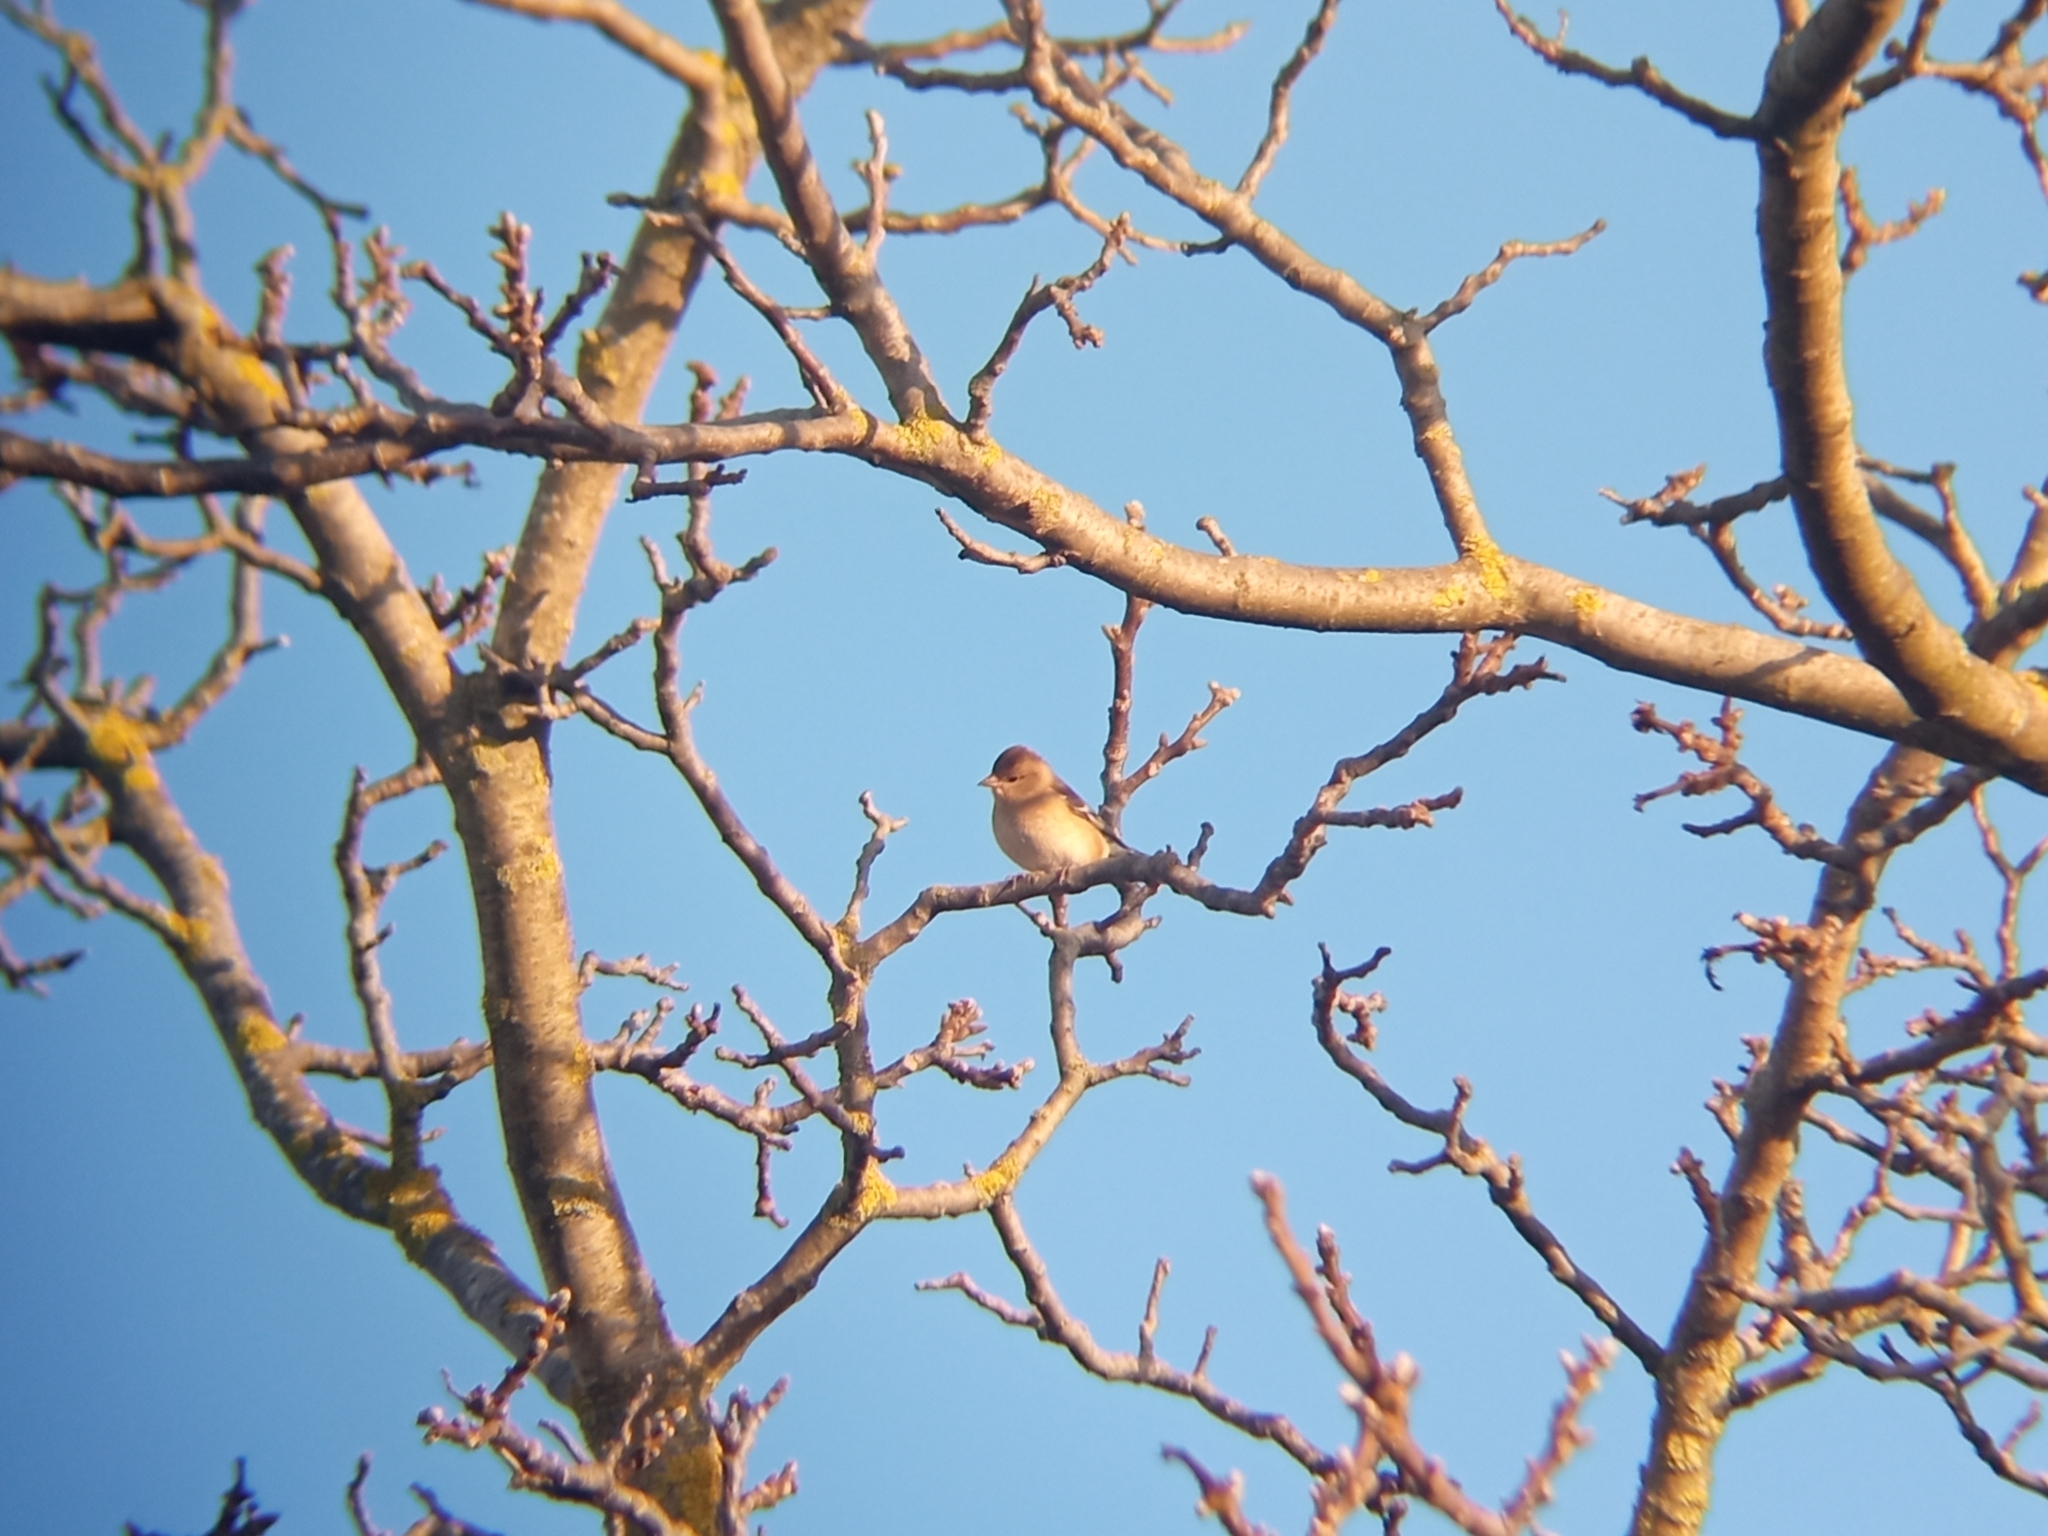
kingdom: Animalia
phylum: Chordata
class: Aves
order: Passeriformes
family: Fringillidae
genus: Fringilla
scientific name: Fringilla coelebs
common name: Common chaffinch
